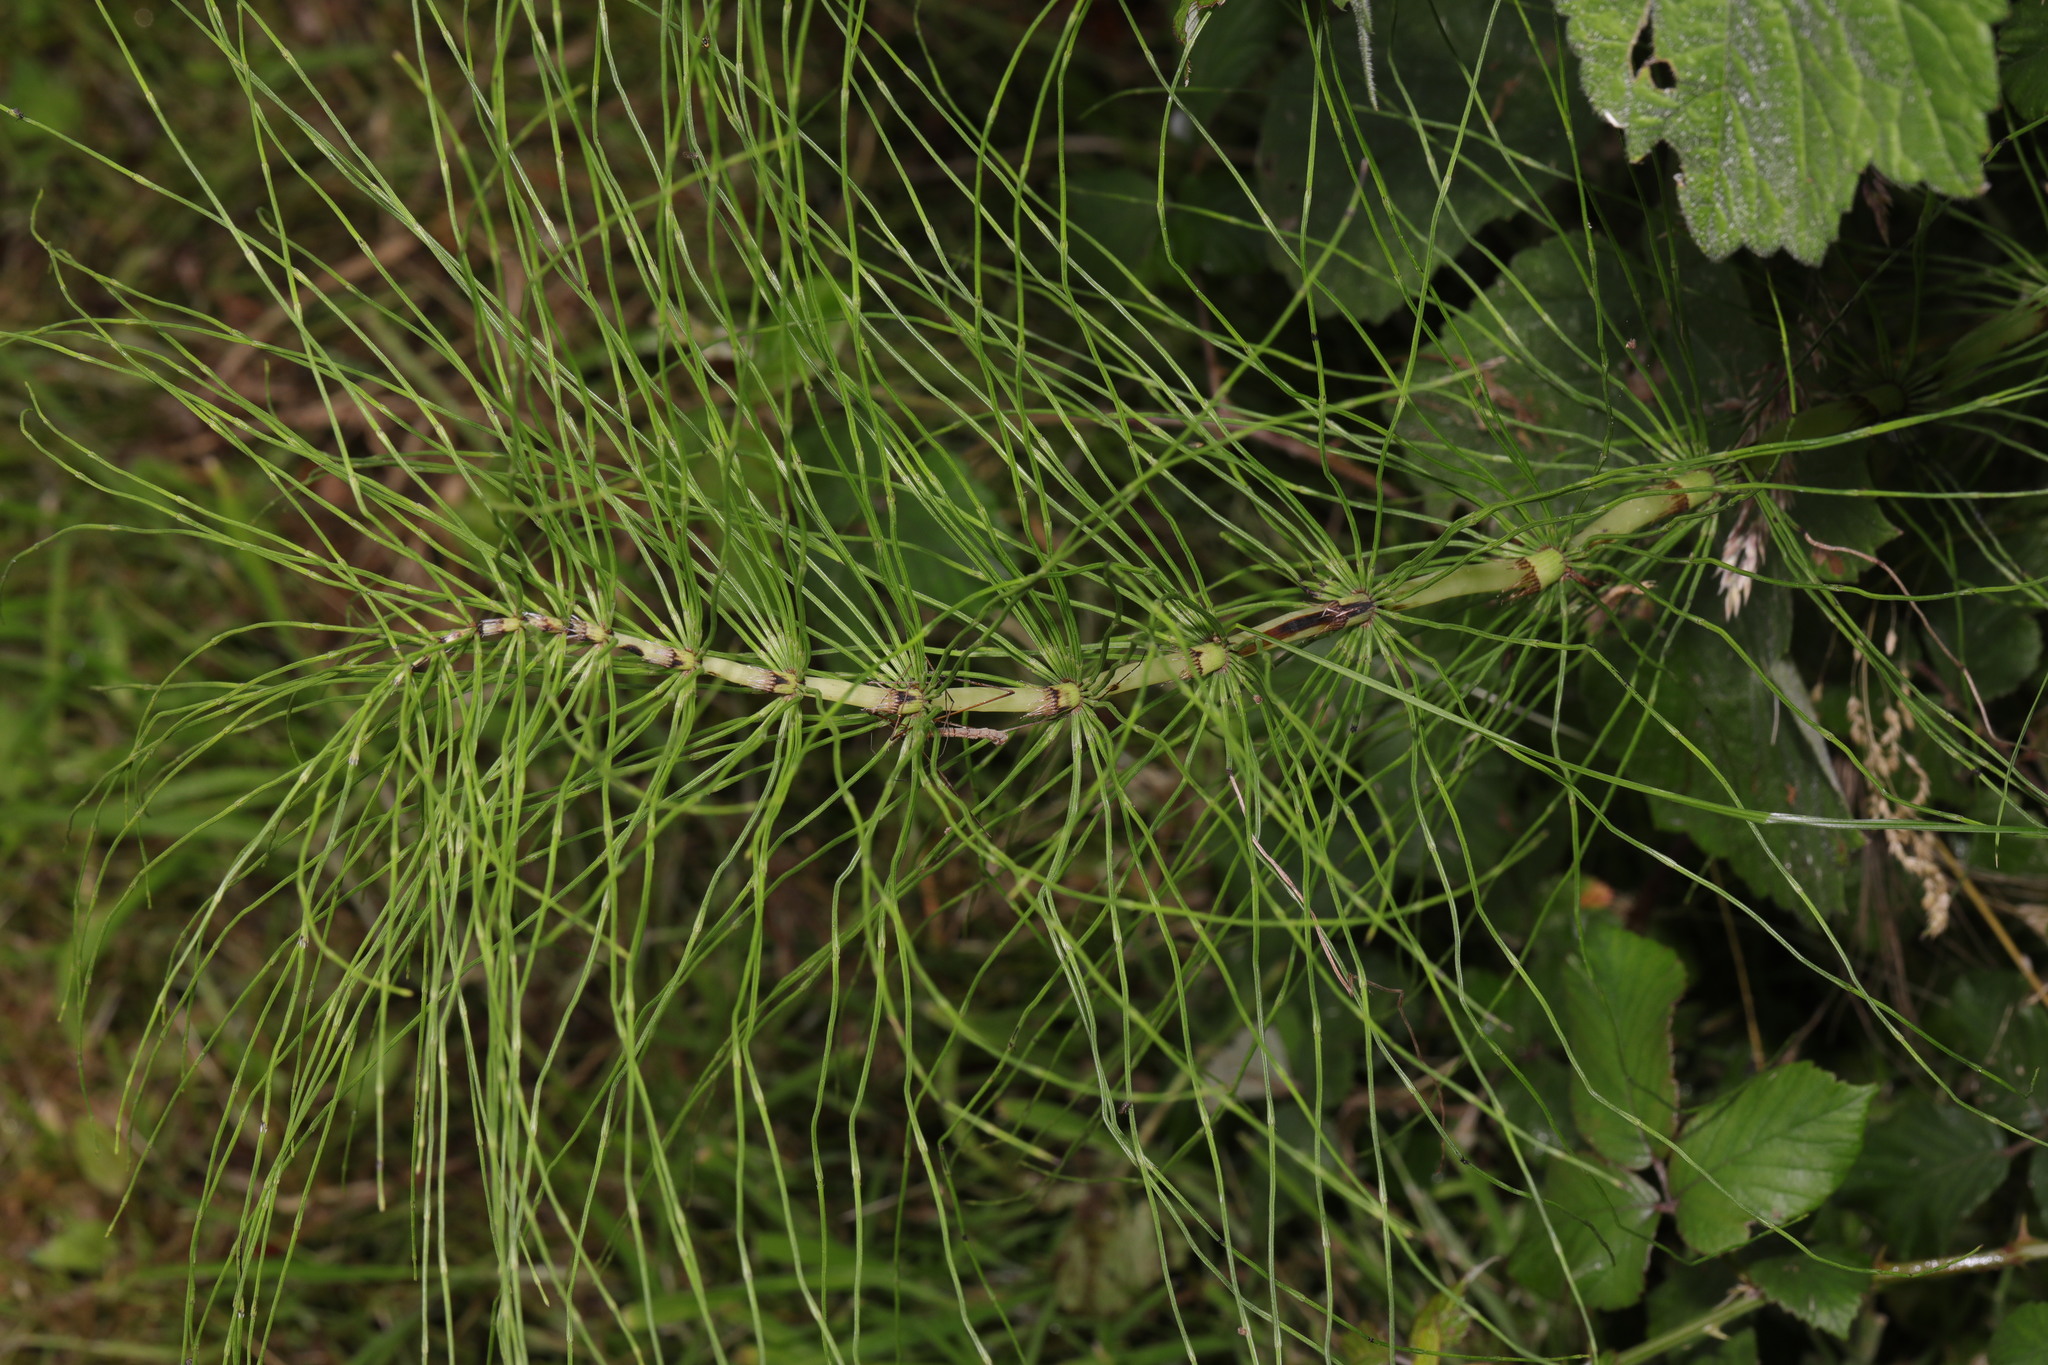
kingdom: Plantae
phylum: Tracheophyta
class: Polypodiopsida
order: Equisetales
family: Equisetaceae
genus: Equisetum
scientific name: Equisetum telmateia
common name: Great horsetail
